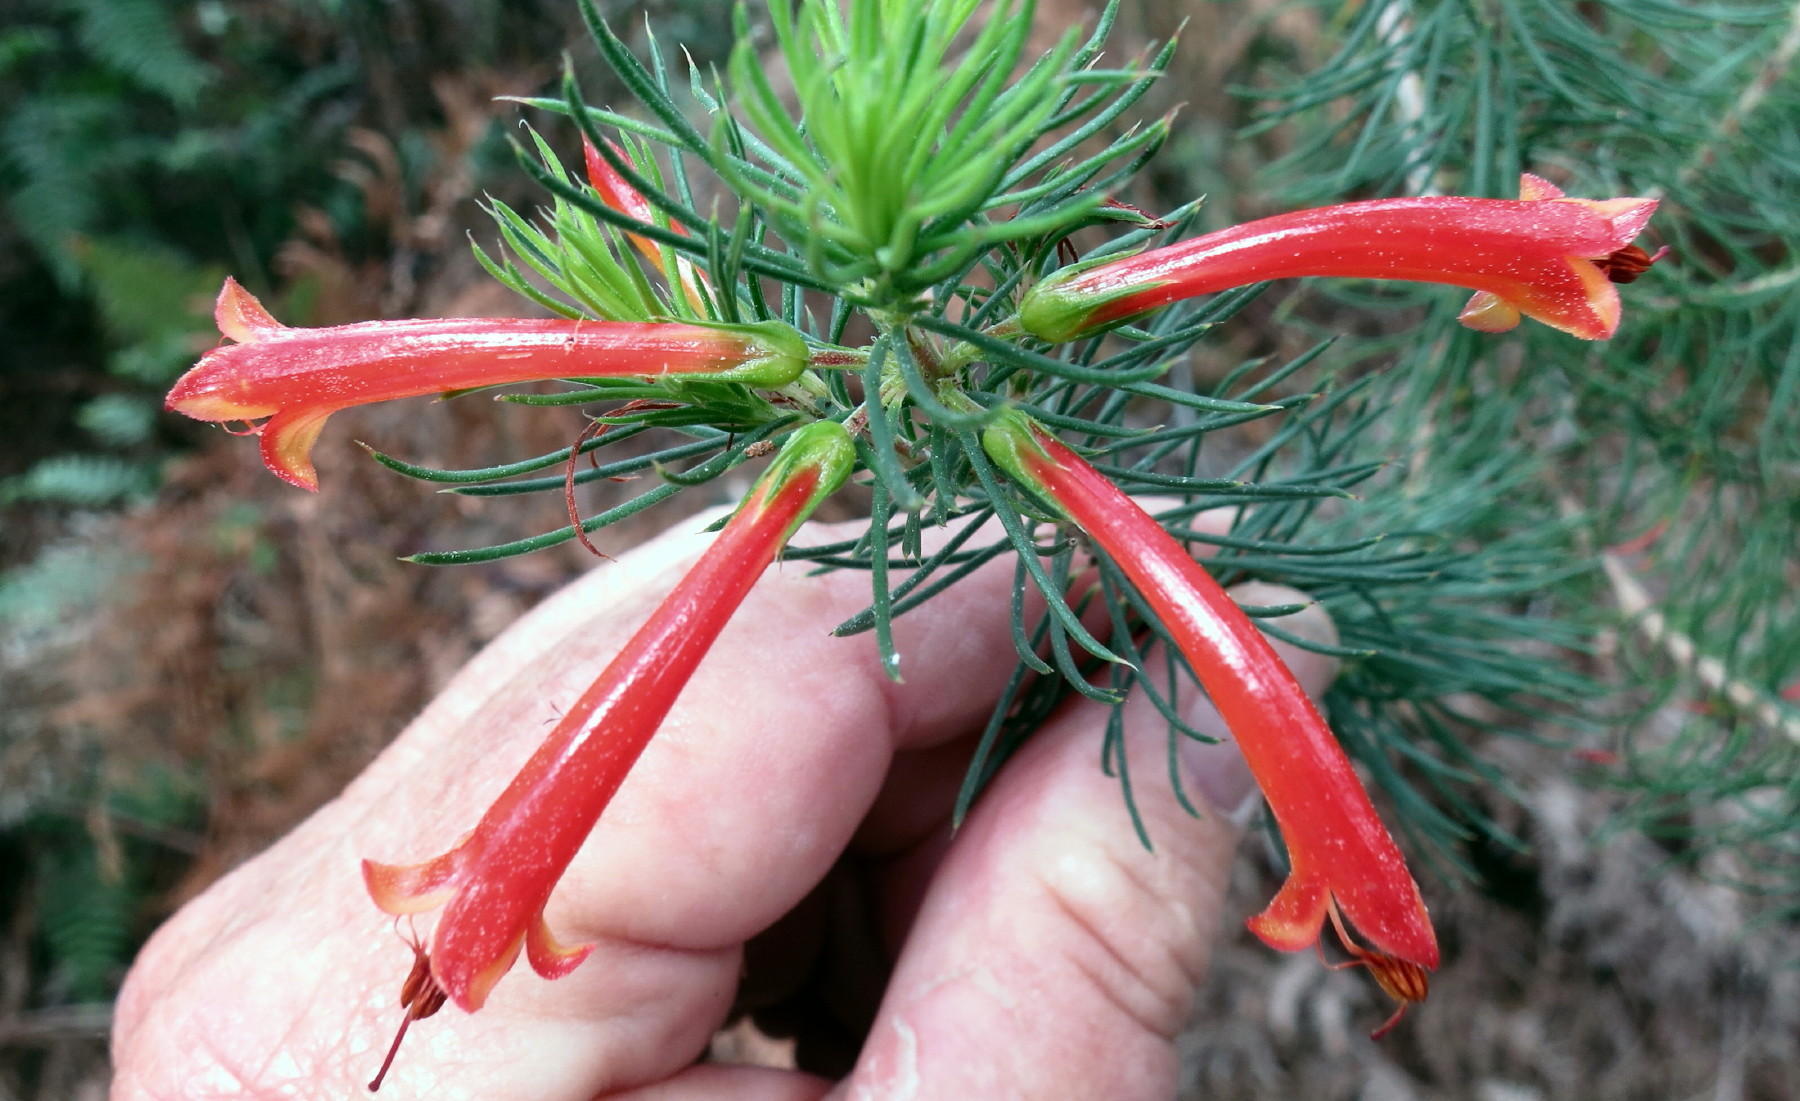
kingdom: Plantae
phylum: Tracheophyta
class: Magnoliopsida
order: Ericales
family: Ericaceae
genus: Erica
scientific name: Erica grandiflora
